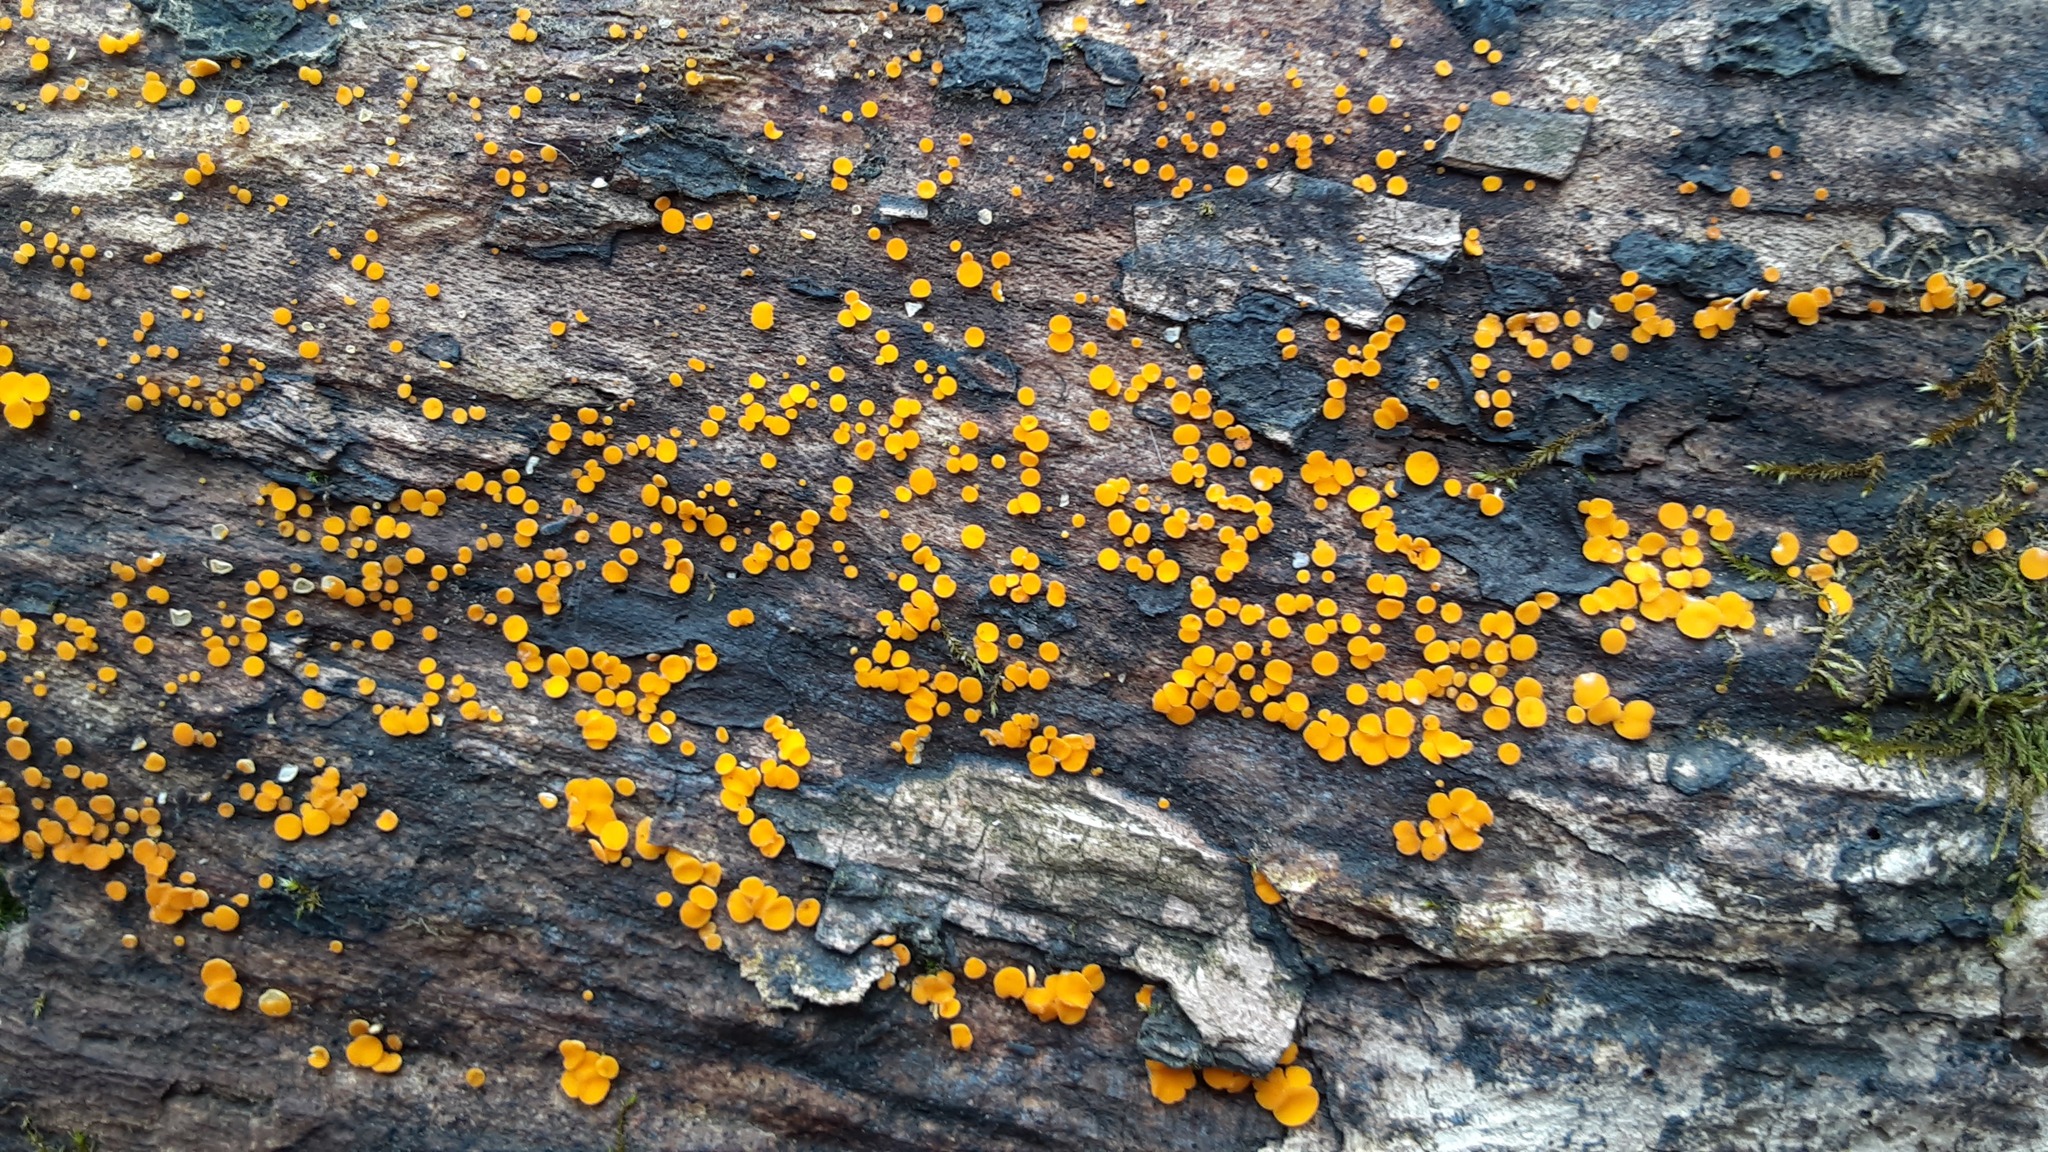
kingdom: Fungi
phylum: Ascomycota
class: Leotiomycetes
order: Helotiales
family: Pezizellaceae
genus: Calycina
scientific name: Calycina citrina
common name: Yellow fairy cups
